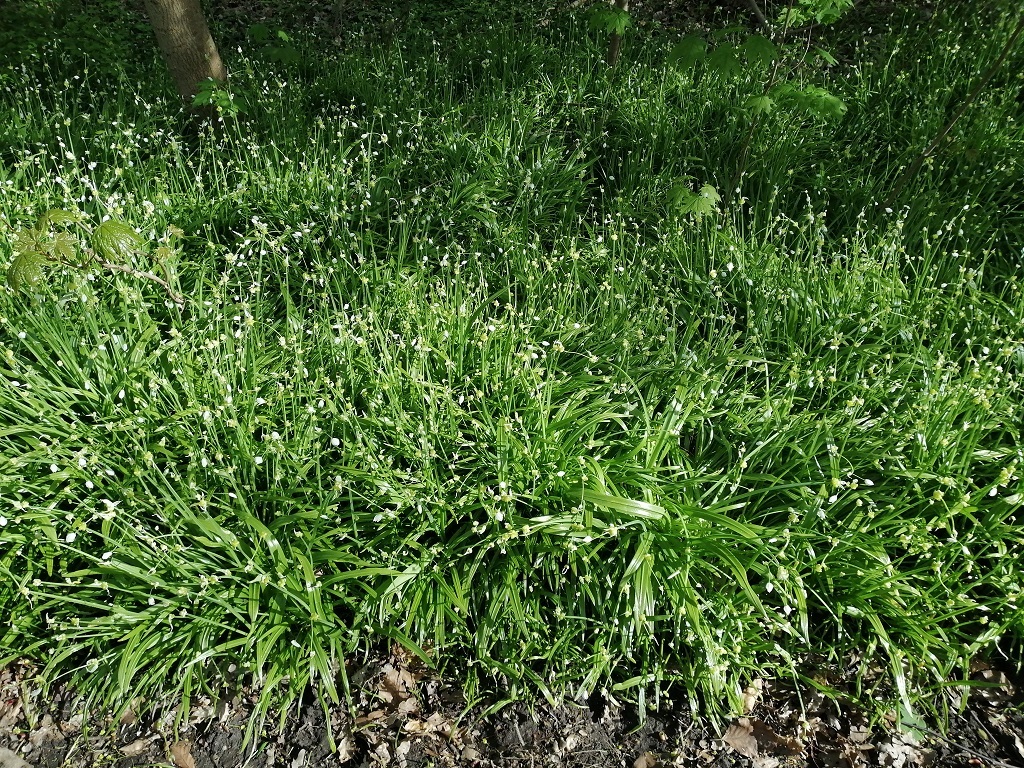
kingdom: Plantae
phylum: Tracheophyta
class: Liliopsida
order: Asparagales
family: Amaryllidaceae
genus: Allium
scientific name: Allium paradoxum
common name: Few-flowered garlic
